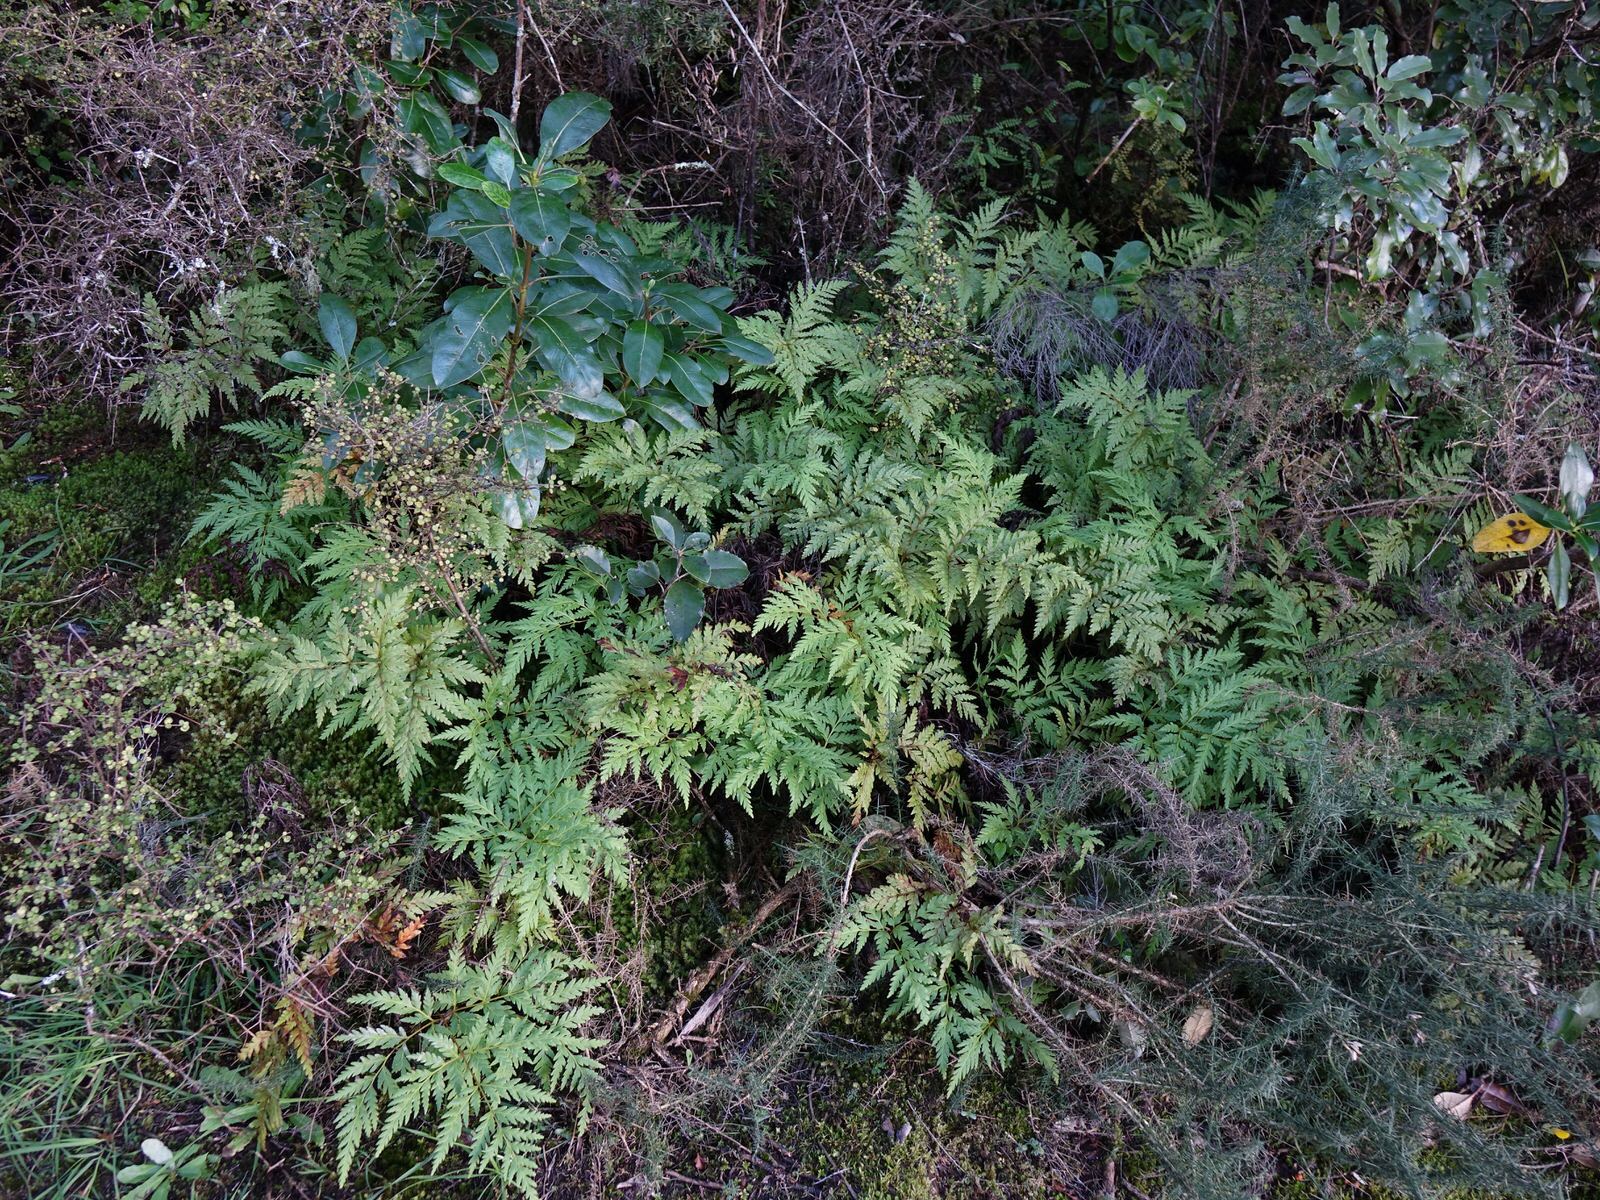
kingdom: Plantae
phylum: Tracheophyta
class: Polypodiopsida
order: Cyatheales
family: Loxsomataceae
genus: Loxsoma
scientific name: Loxsoma cunninghamii
